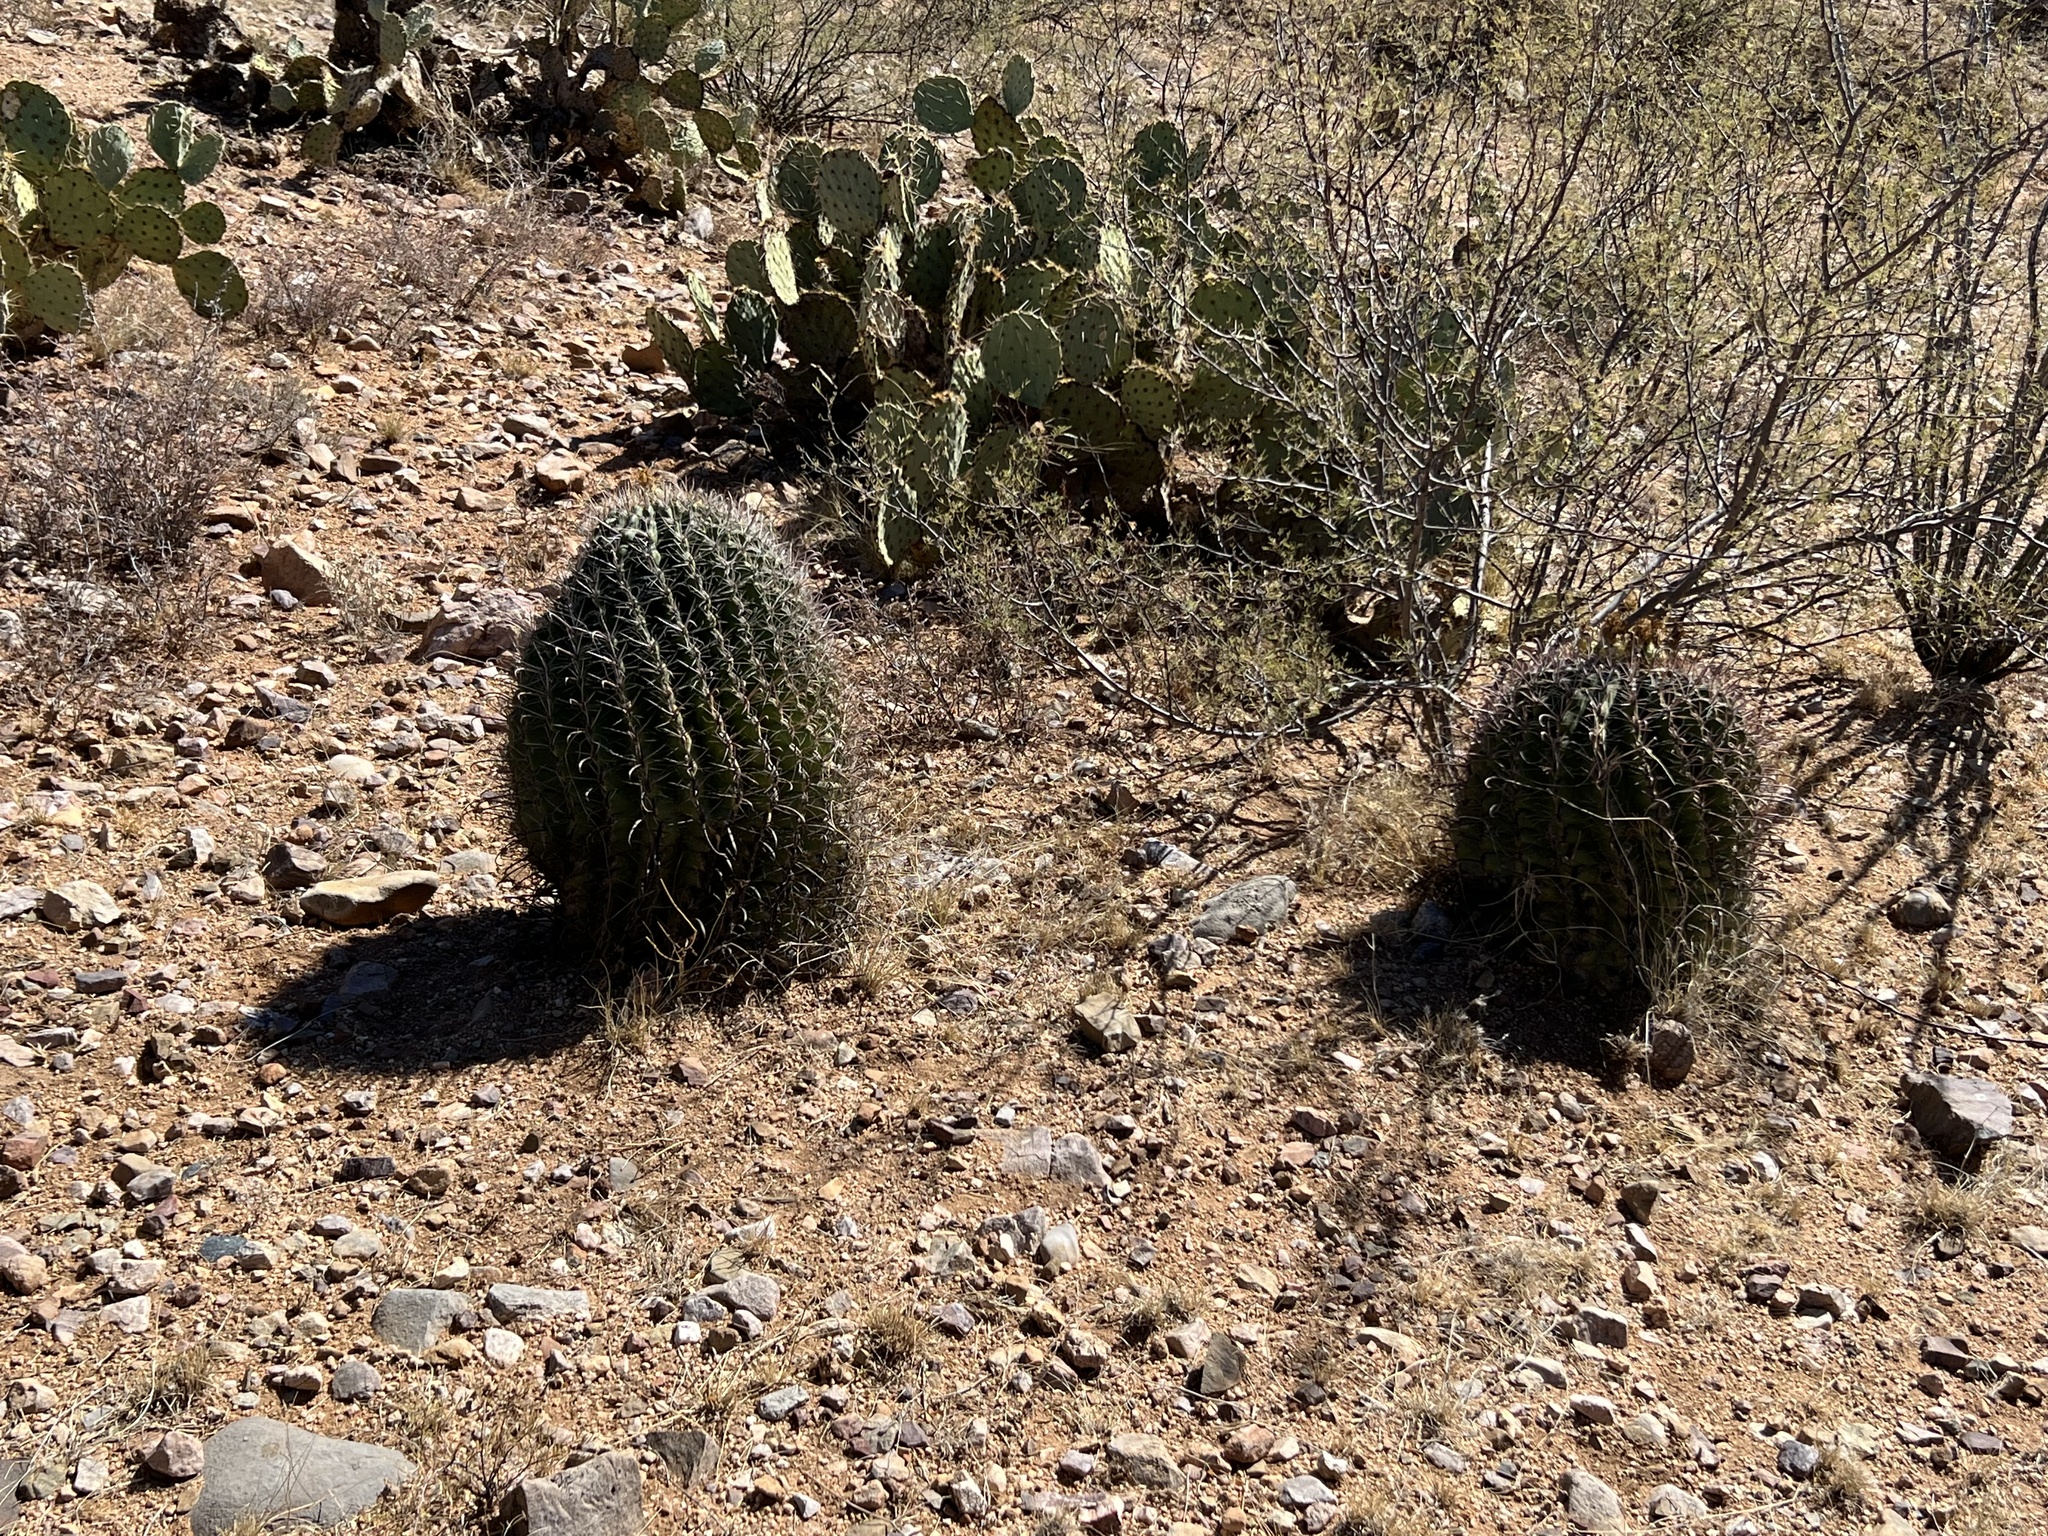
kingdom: Plantae
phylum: Tracheophyta
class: Magnoliopsida
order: Caryophyllales
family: Cactaceae
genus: Ferocactus
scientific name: Ferocactus wislizeni
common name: Candy barrel cactus
